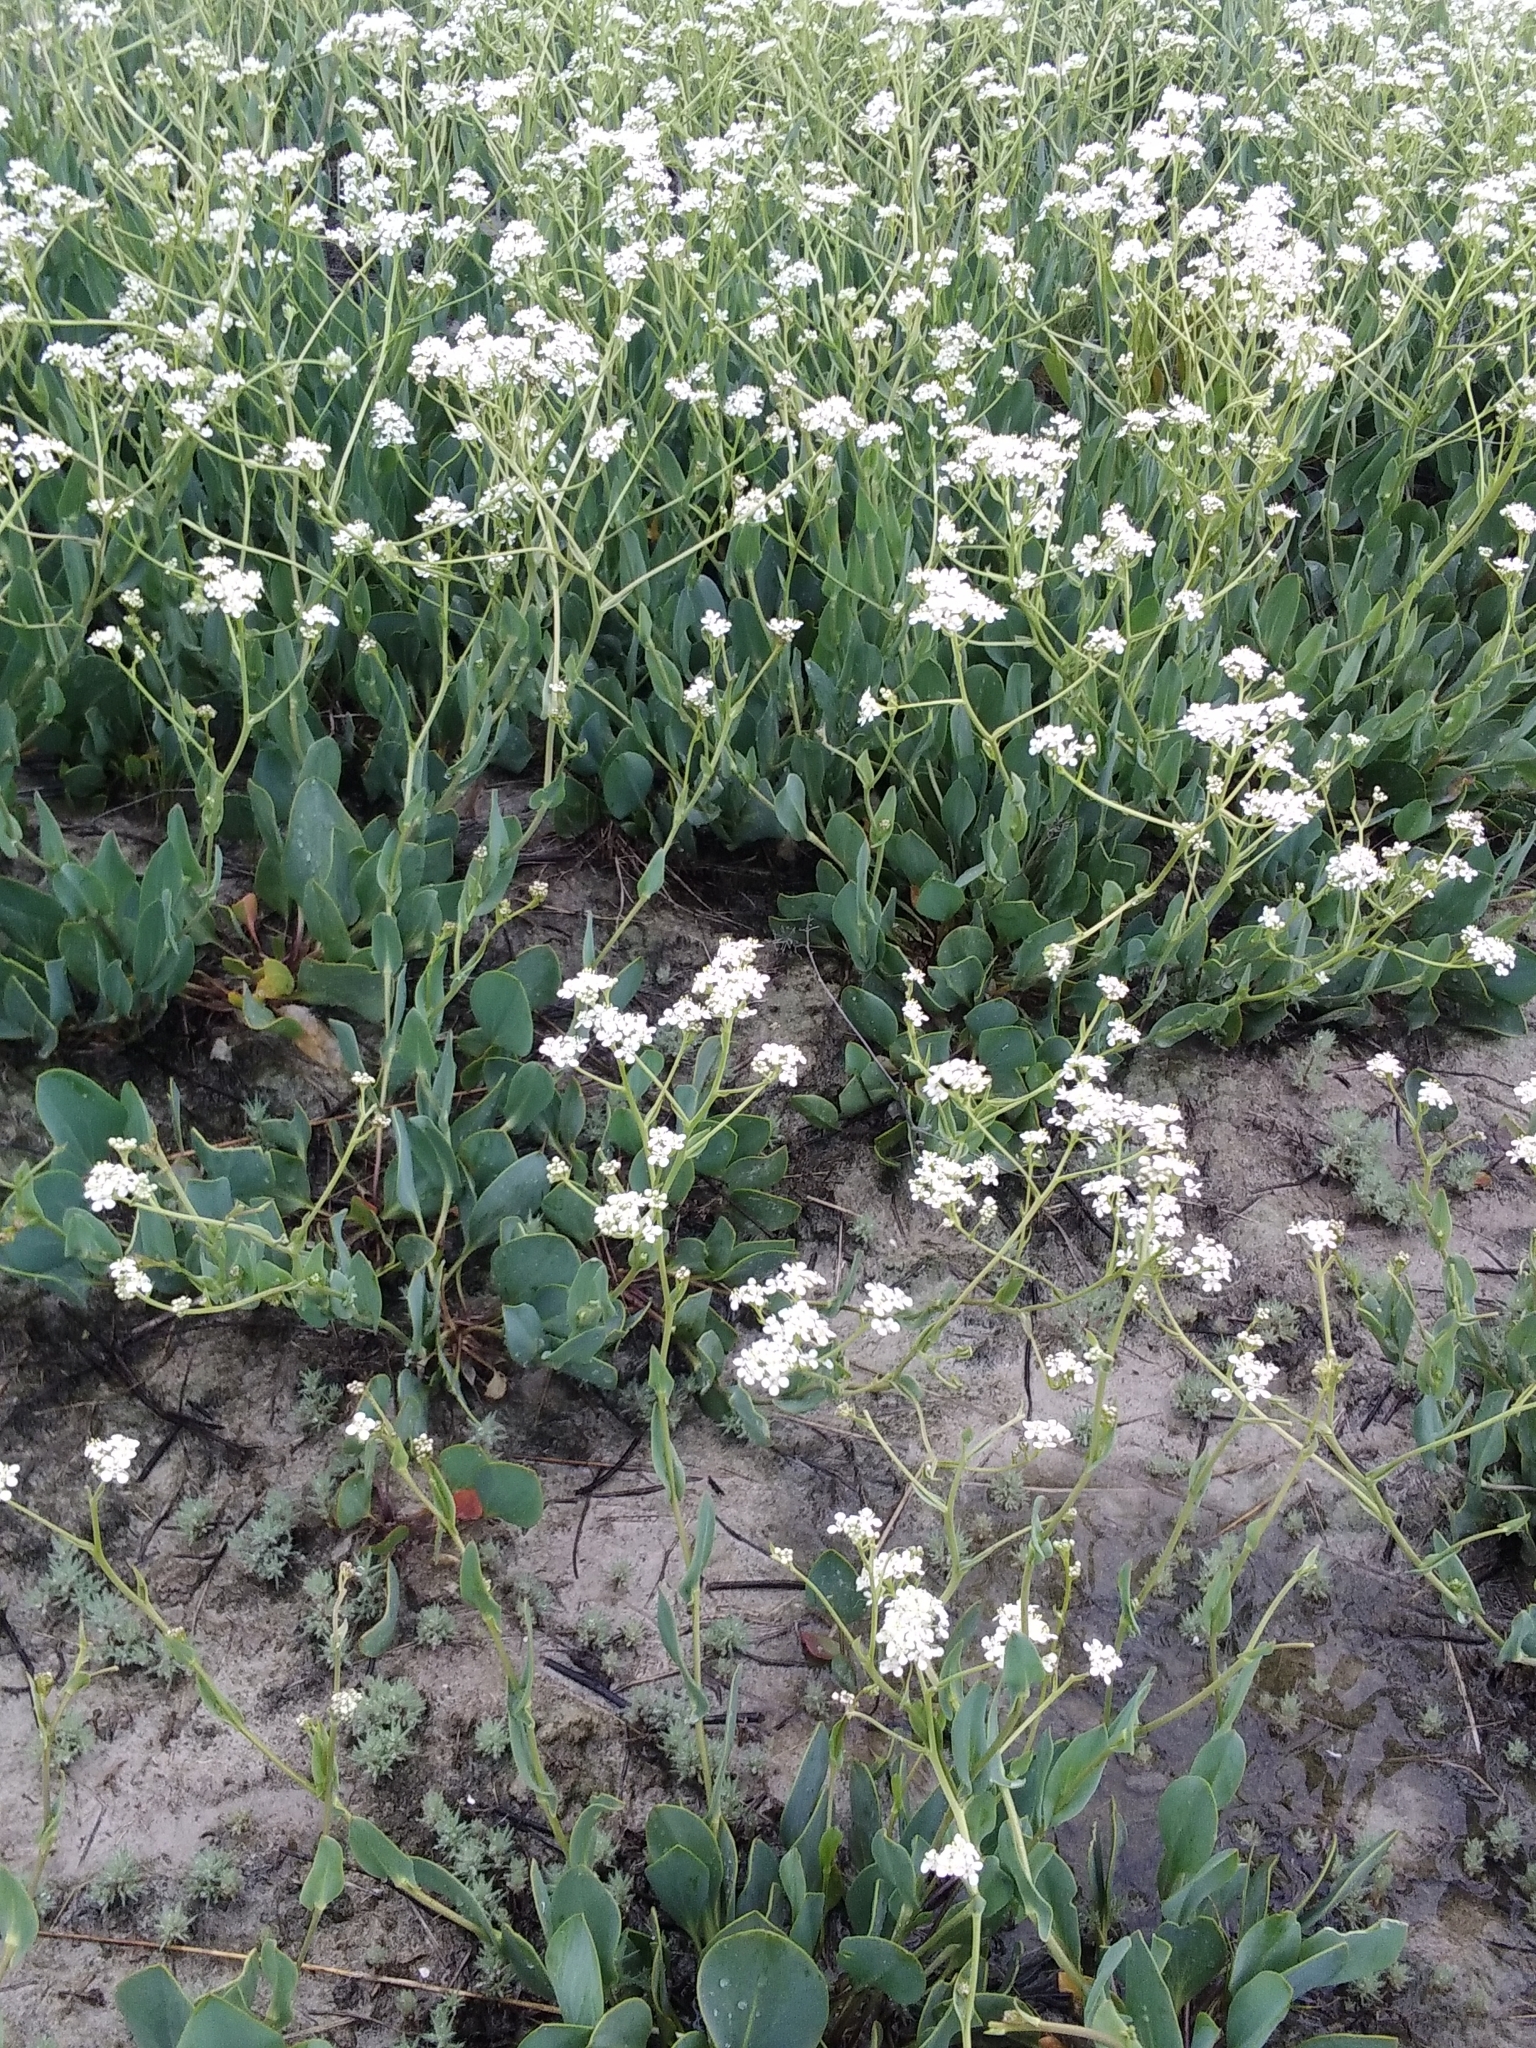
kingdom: Plantae
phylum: Tracheophyta
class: Magnoliopsida
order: Brassicales
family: Brassicaceae
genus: Lepidium
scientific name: Lepidium cartilagineum
